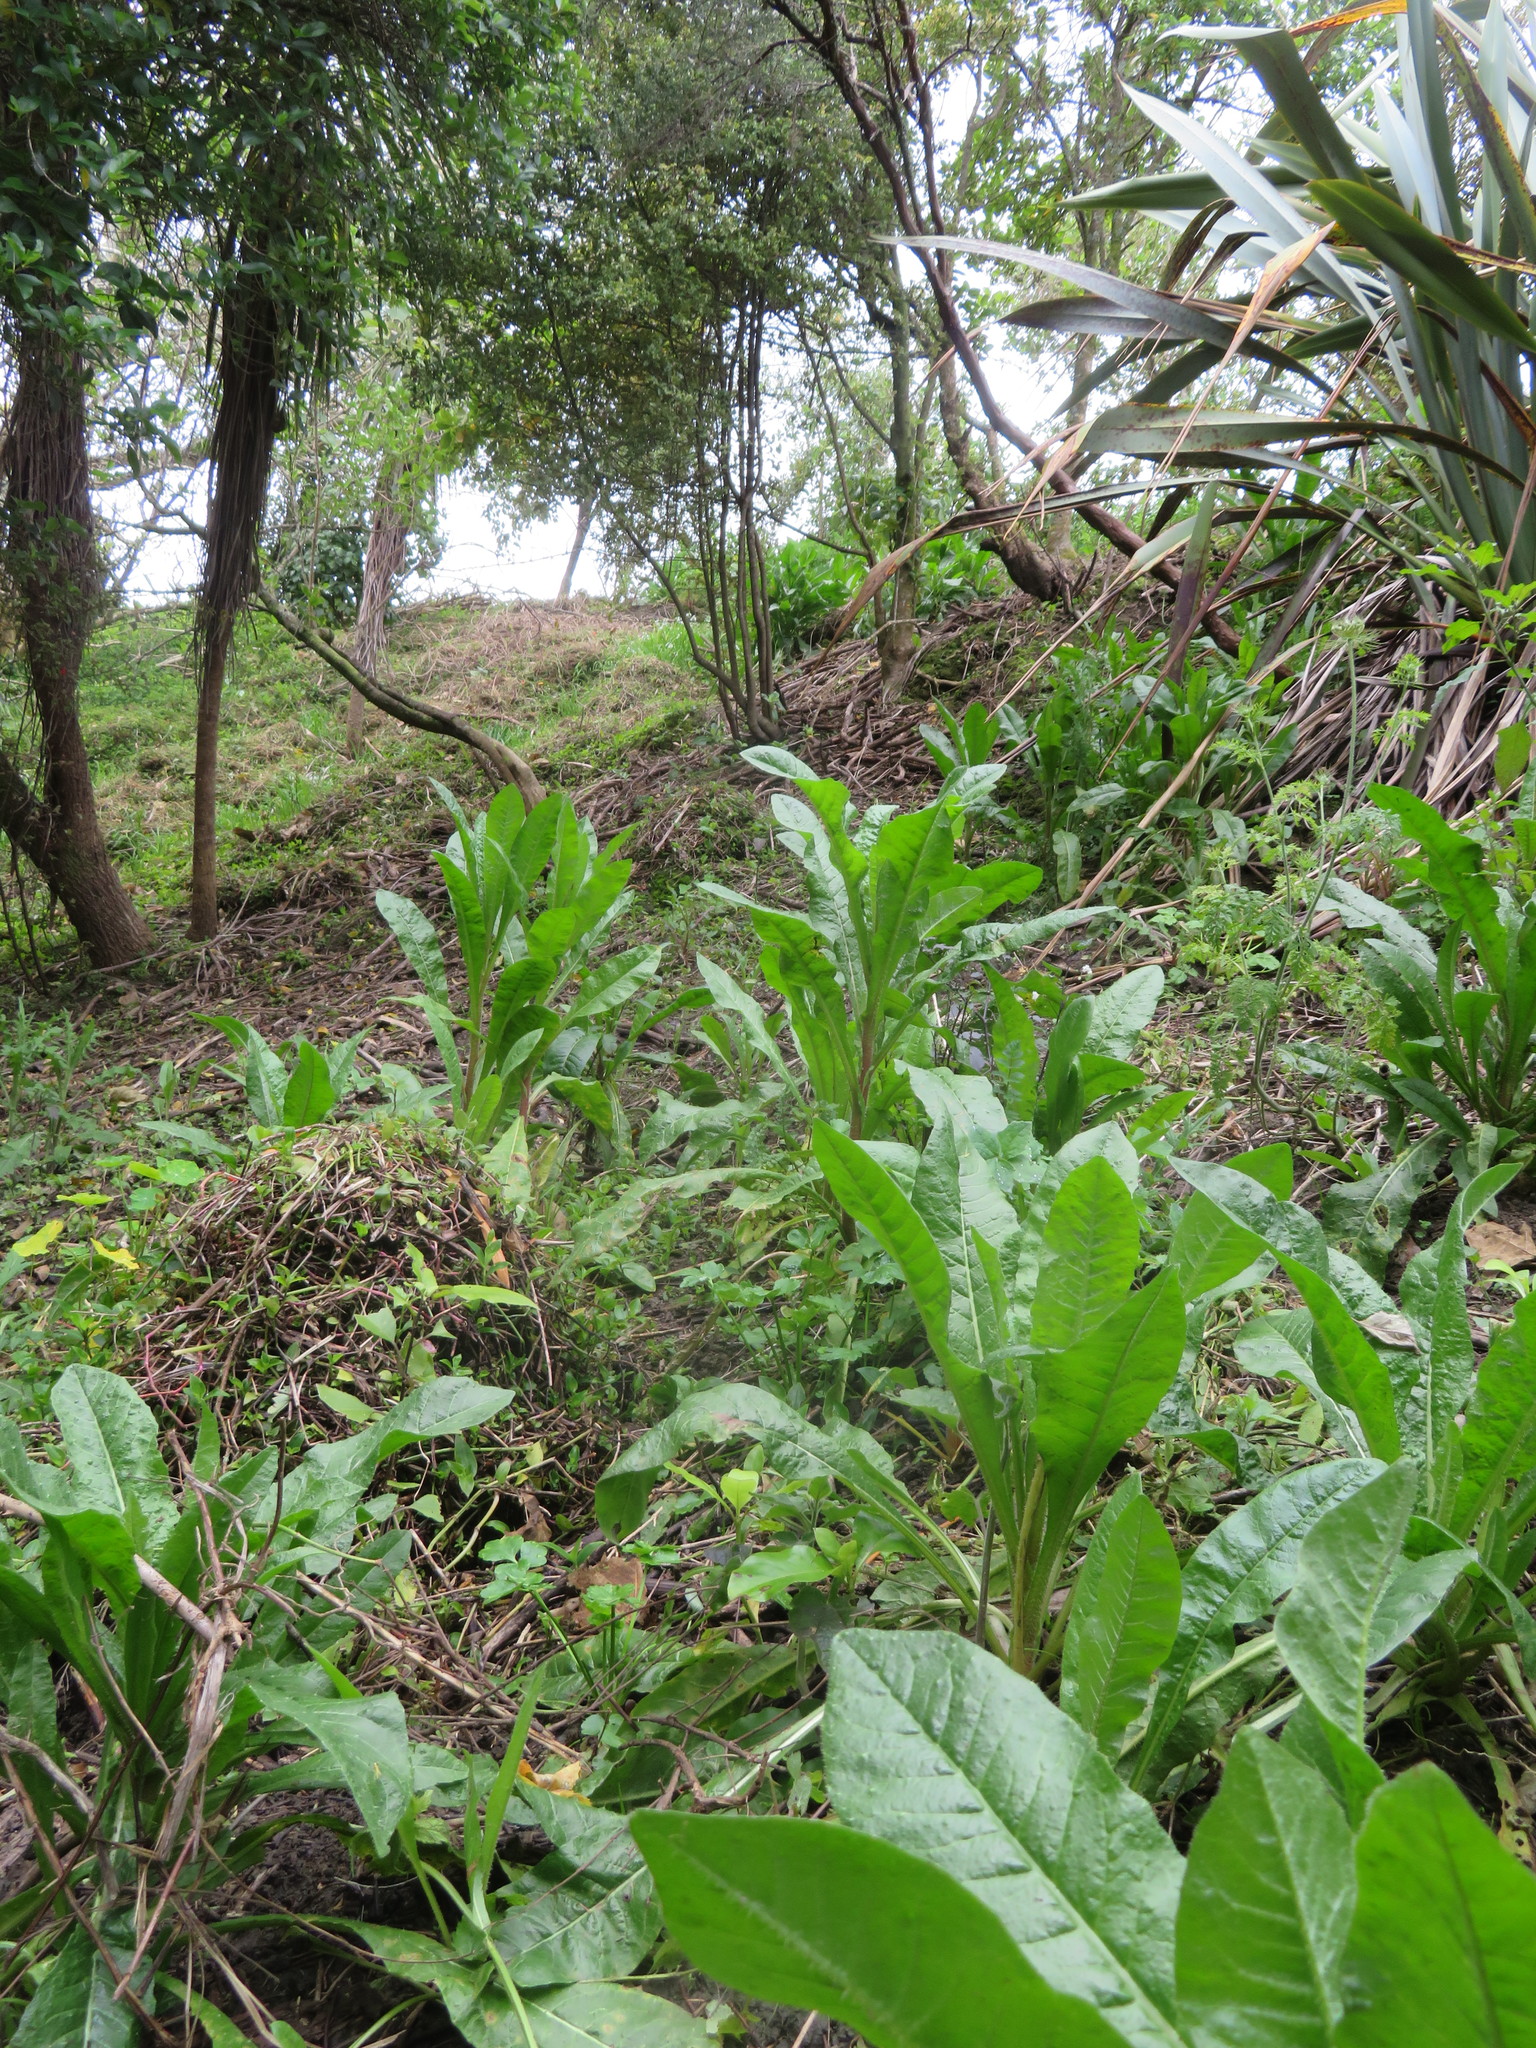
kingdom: Plantae
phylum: Tracheophyta
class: Magnoliopsida
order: Asterales
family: Asteraceae
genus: Helminthotheca
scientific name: Helminthotheca echioides
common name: Ox-tongue
